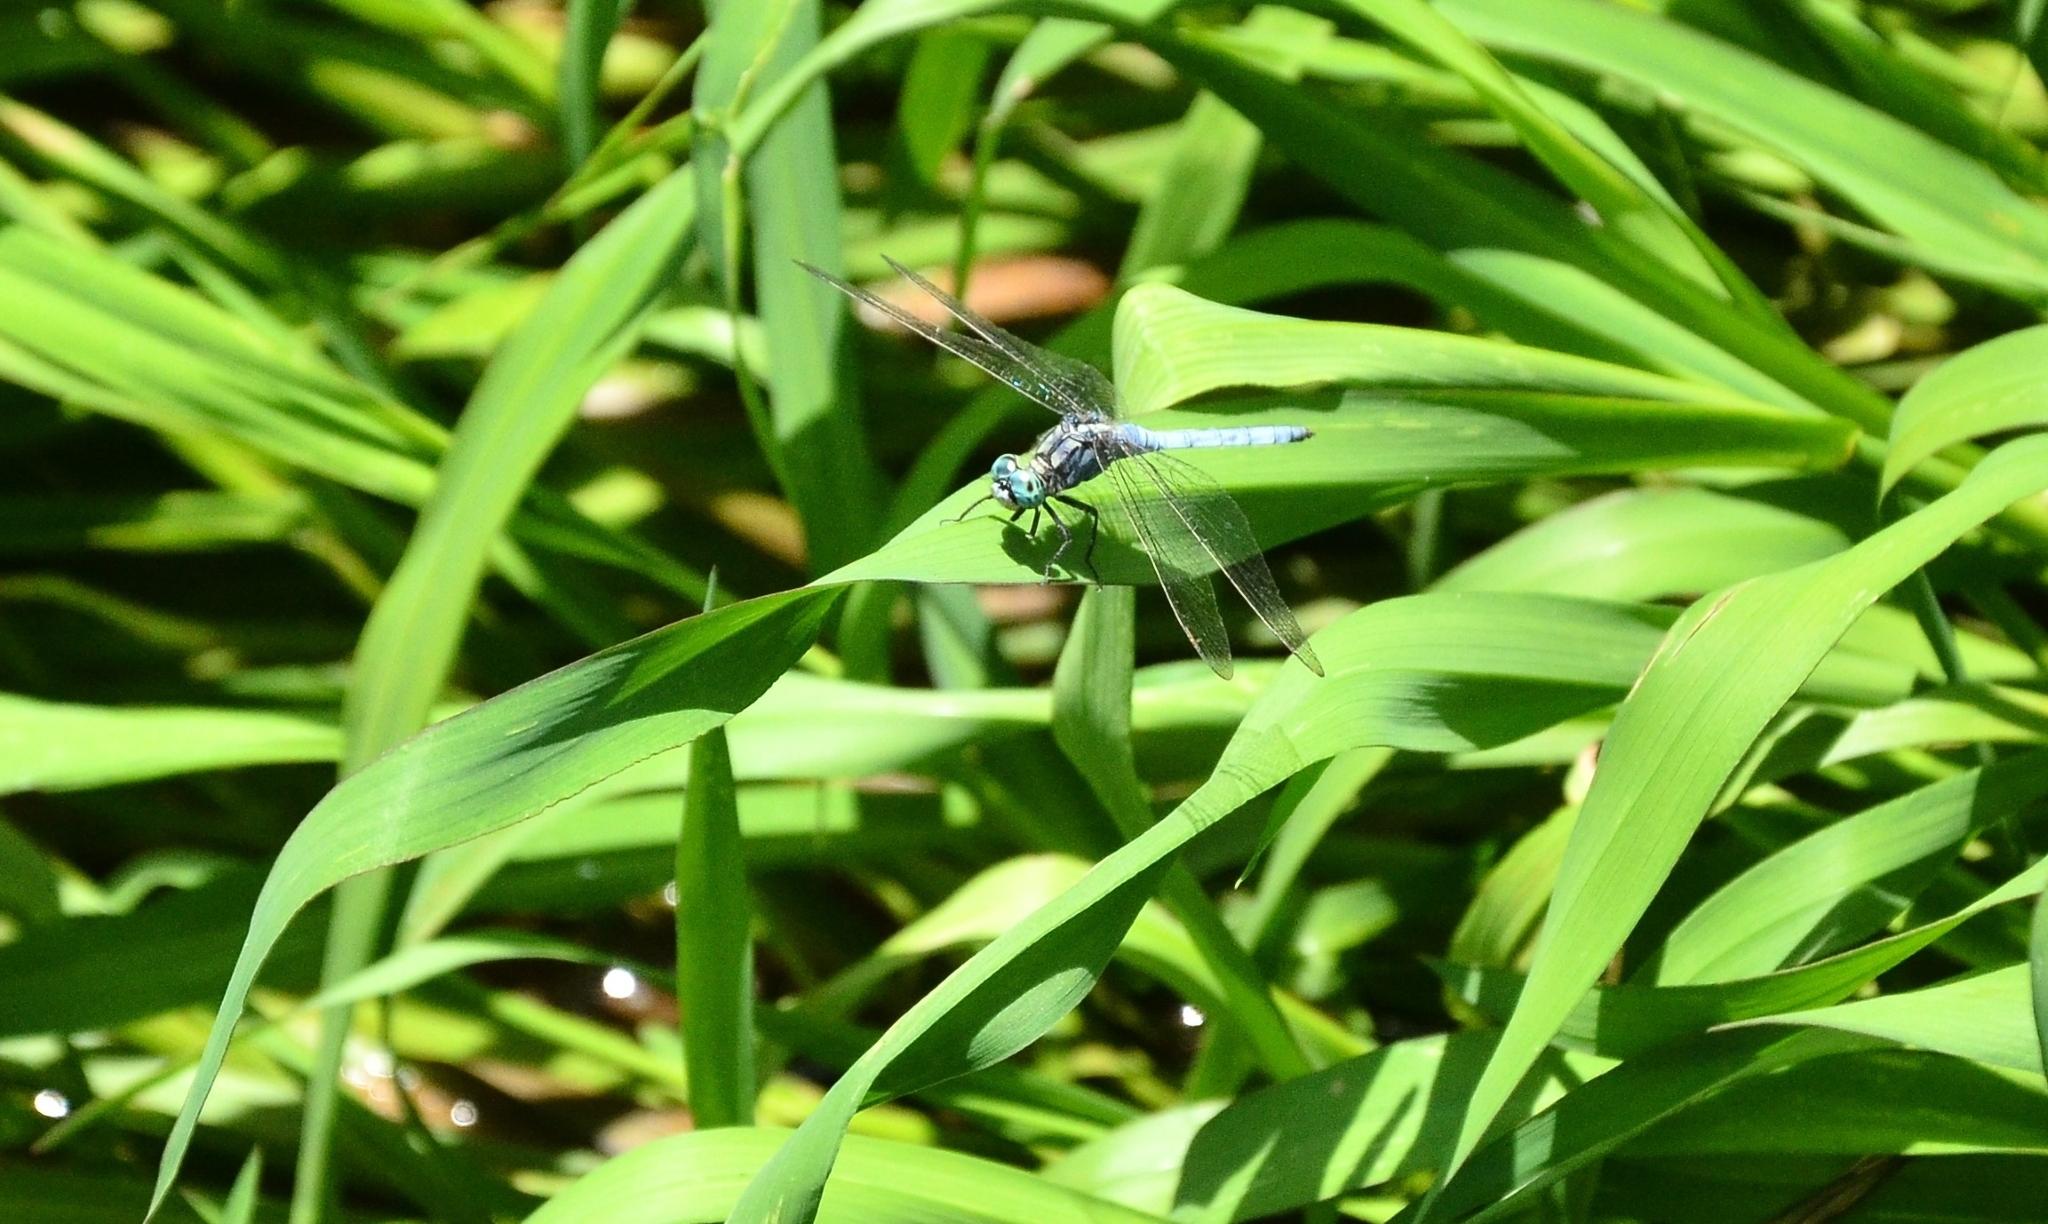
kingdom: Animalia
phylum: Arthropoda
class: Insecta
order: Odonata
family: Libellulidae
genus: Orthetrum
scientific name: Orthetrum luzonicum
